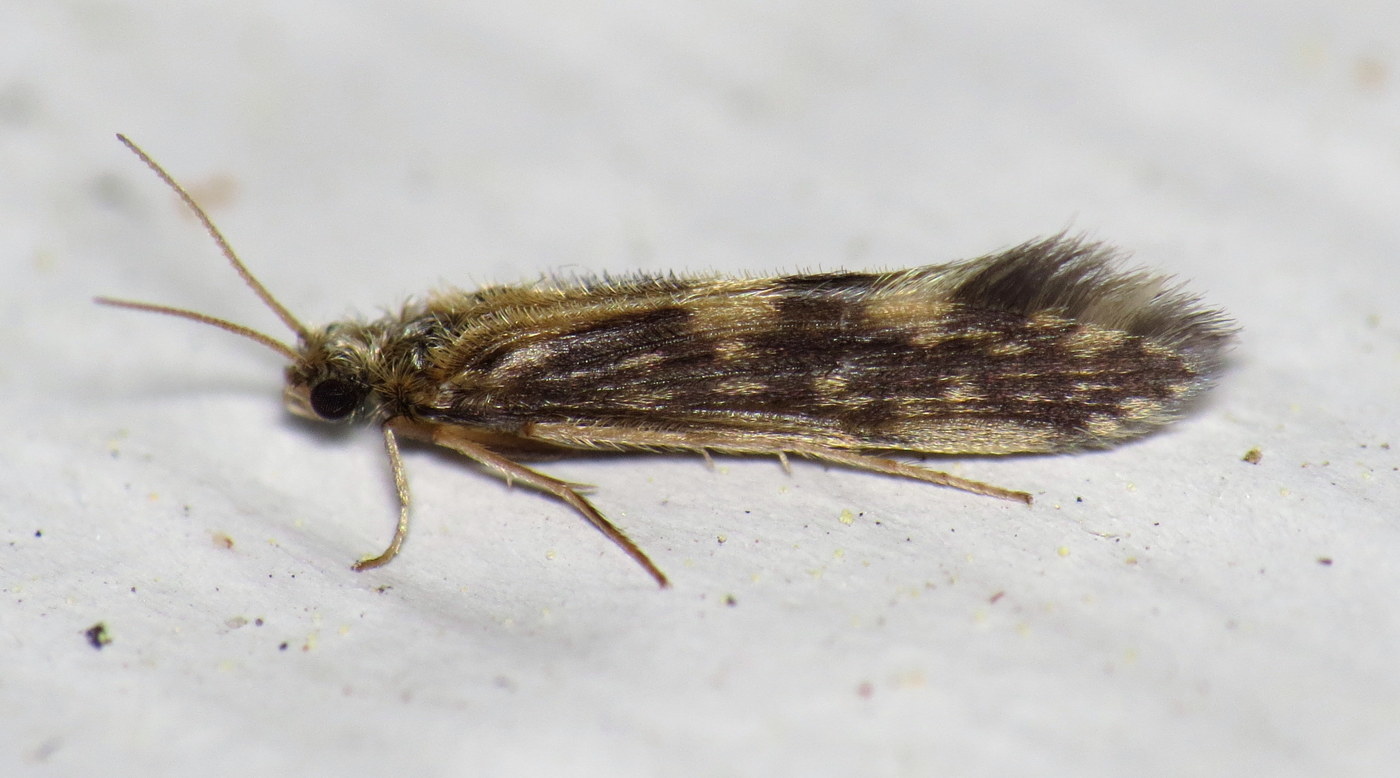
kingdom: Animalia
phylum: Arthropoda
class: Insecta
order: Trichoptera
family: Hydroptilidae
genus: Agraylea
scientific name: Agraylea multipunctata
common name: Salt and pepper microcaddisfly
